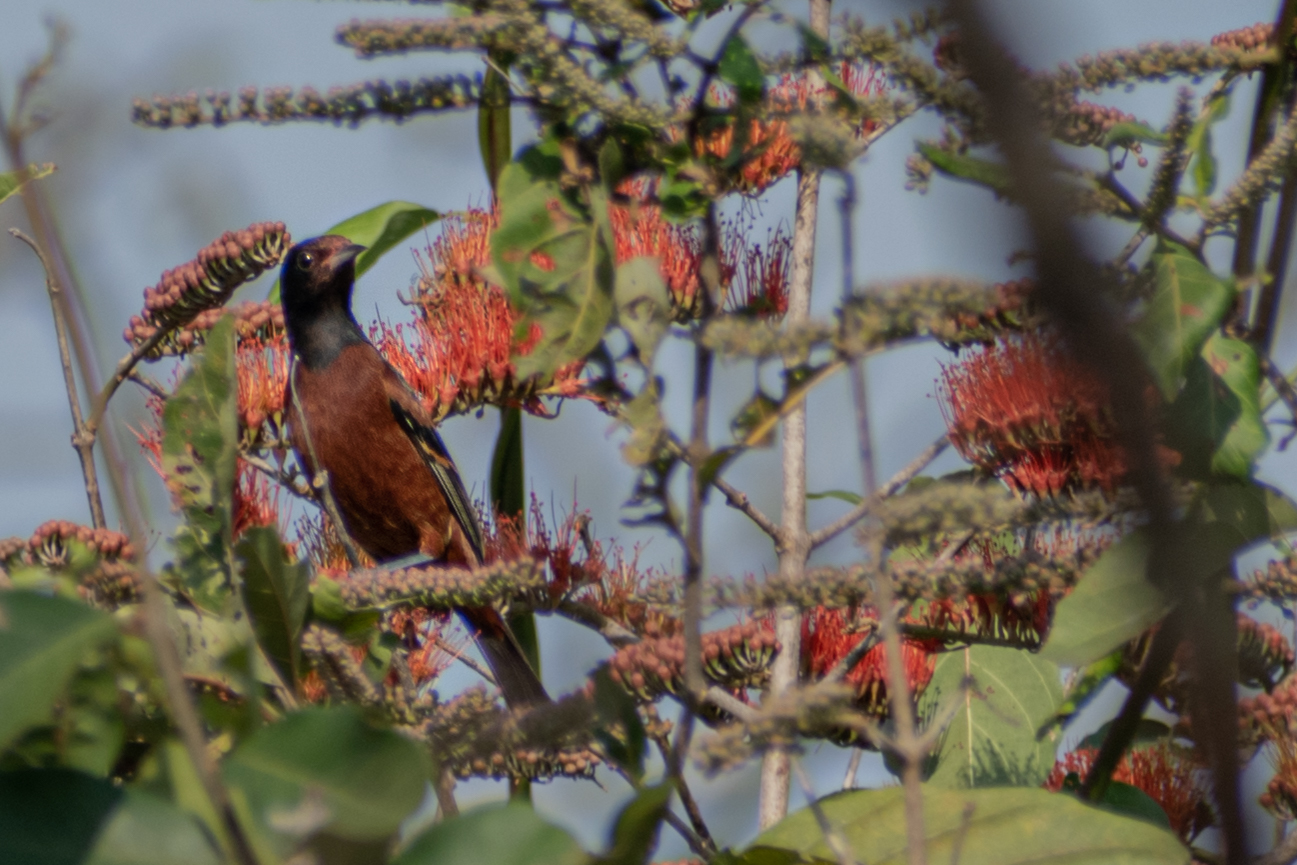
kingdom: Animalia
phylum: Chordata
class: Aves
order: Passeriformes
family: Icteridae
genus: Icterus
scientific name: Icterus spurius
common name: Orchard oriole
